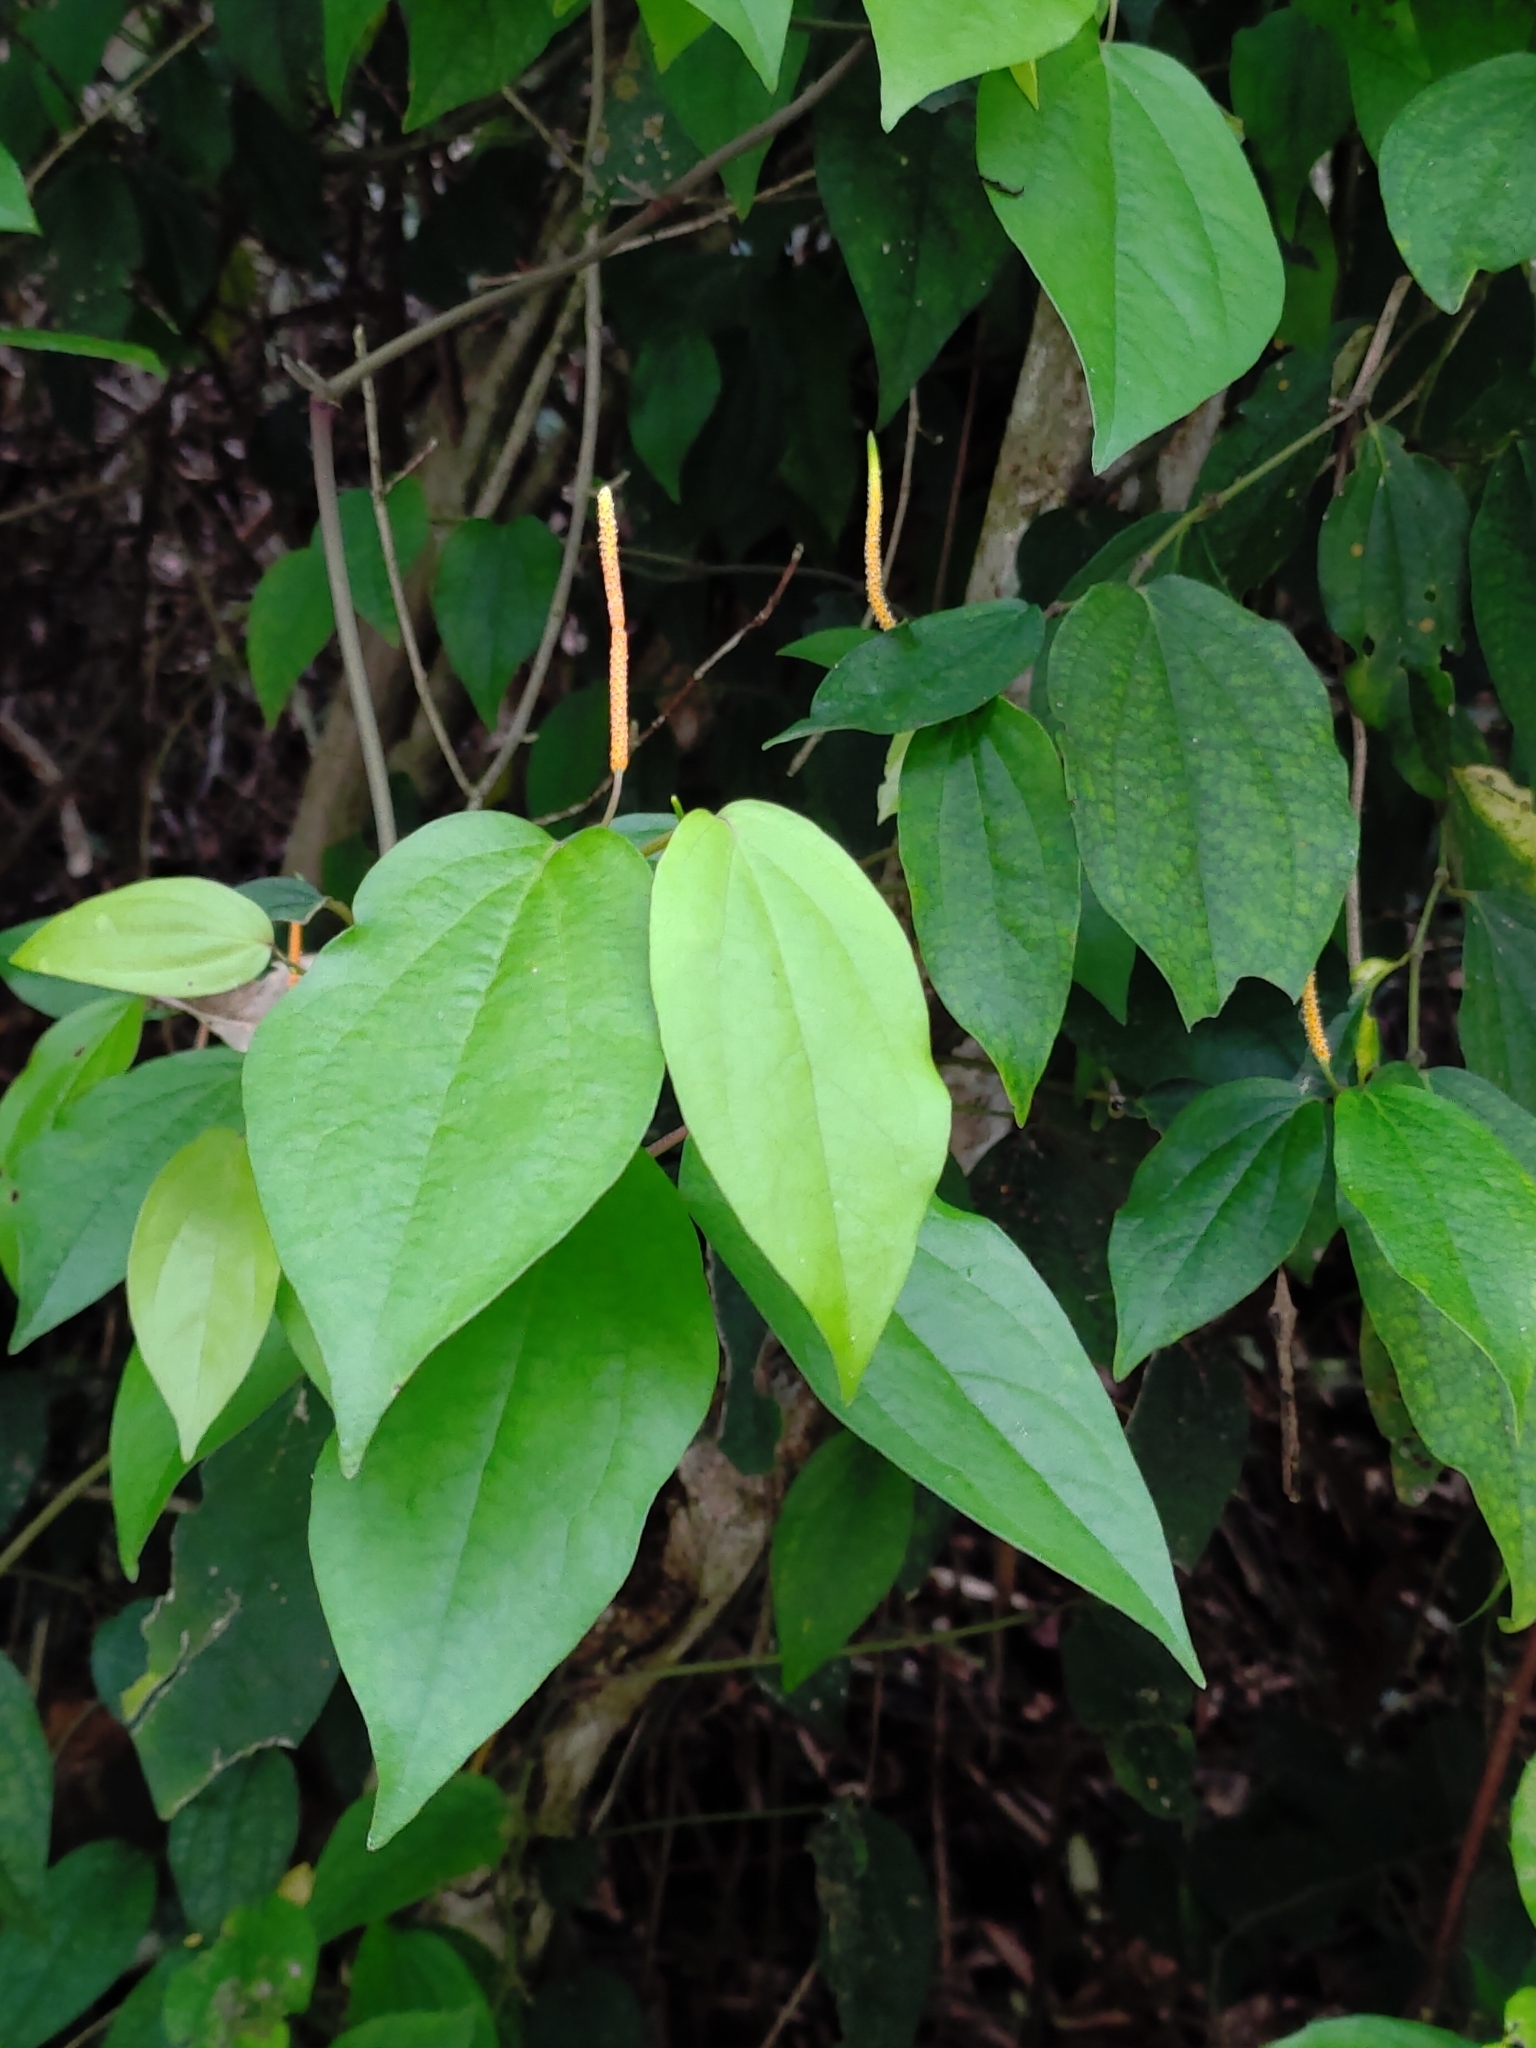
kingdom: Plantae
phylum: Tracheophyta
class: Magnoliopsida
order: Piperales
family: Piperaceae
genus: Piper
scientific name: Piper kadsura
